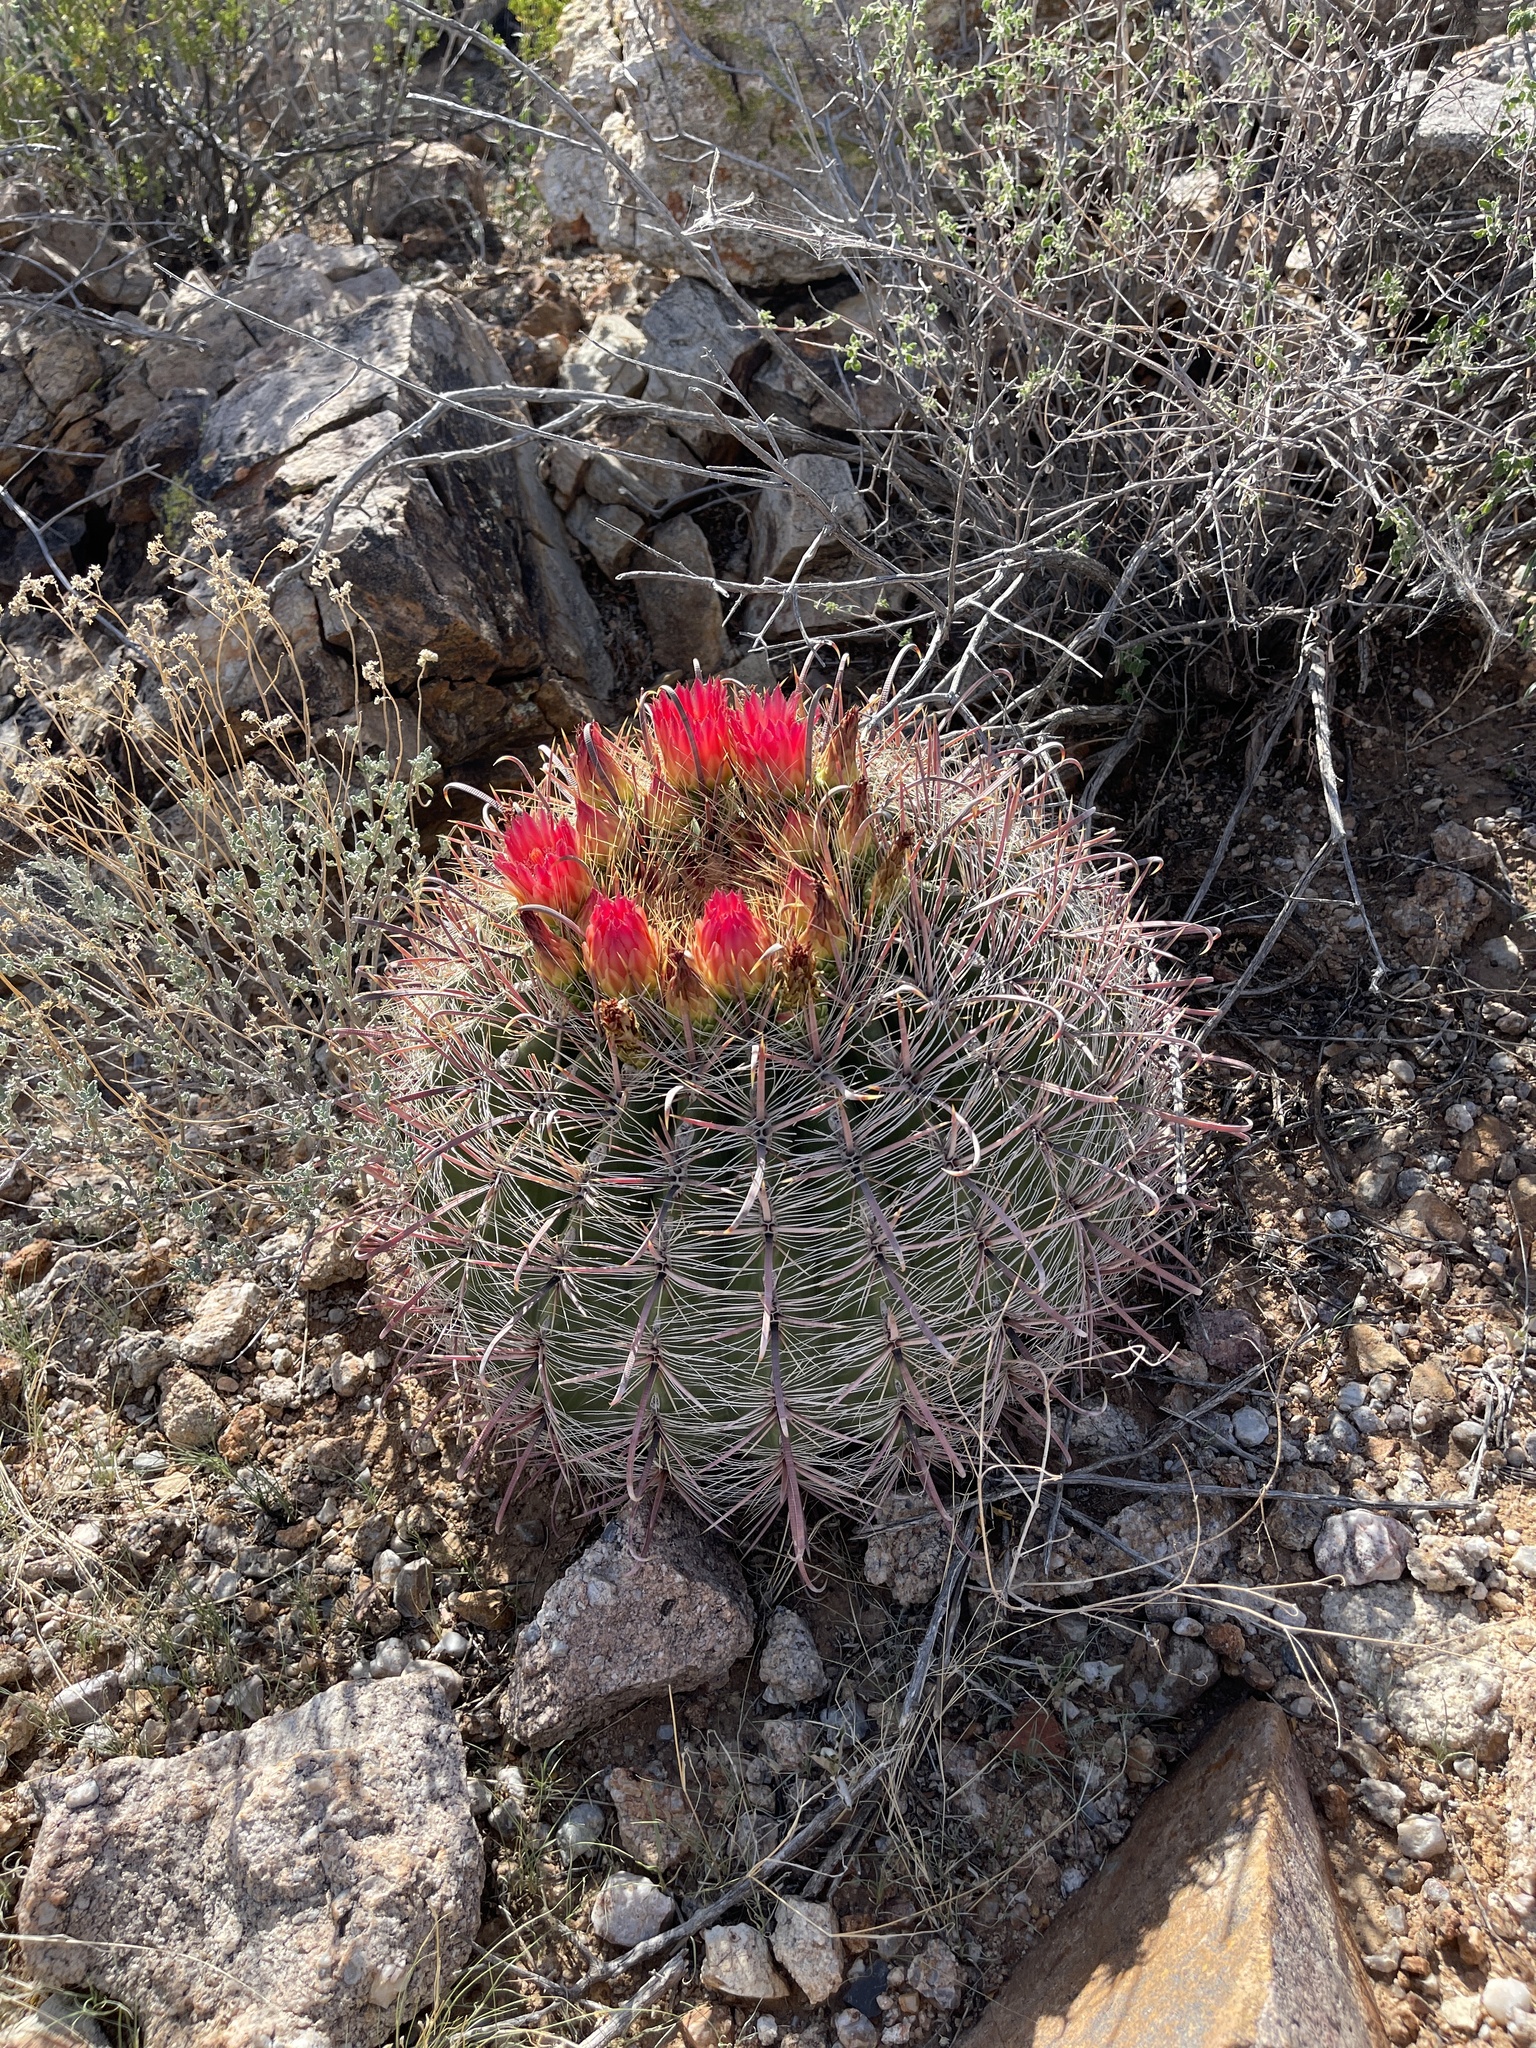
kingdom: Plantae
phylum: Tracheophyta
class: Magnoliopsida
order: Caryophyllales
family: Cactaceae
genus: Ferocactus
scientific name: Ferocactus wislizeni
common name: Candy barrel cactus
